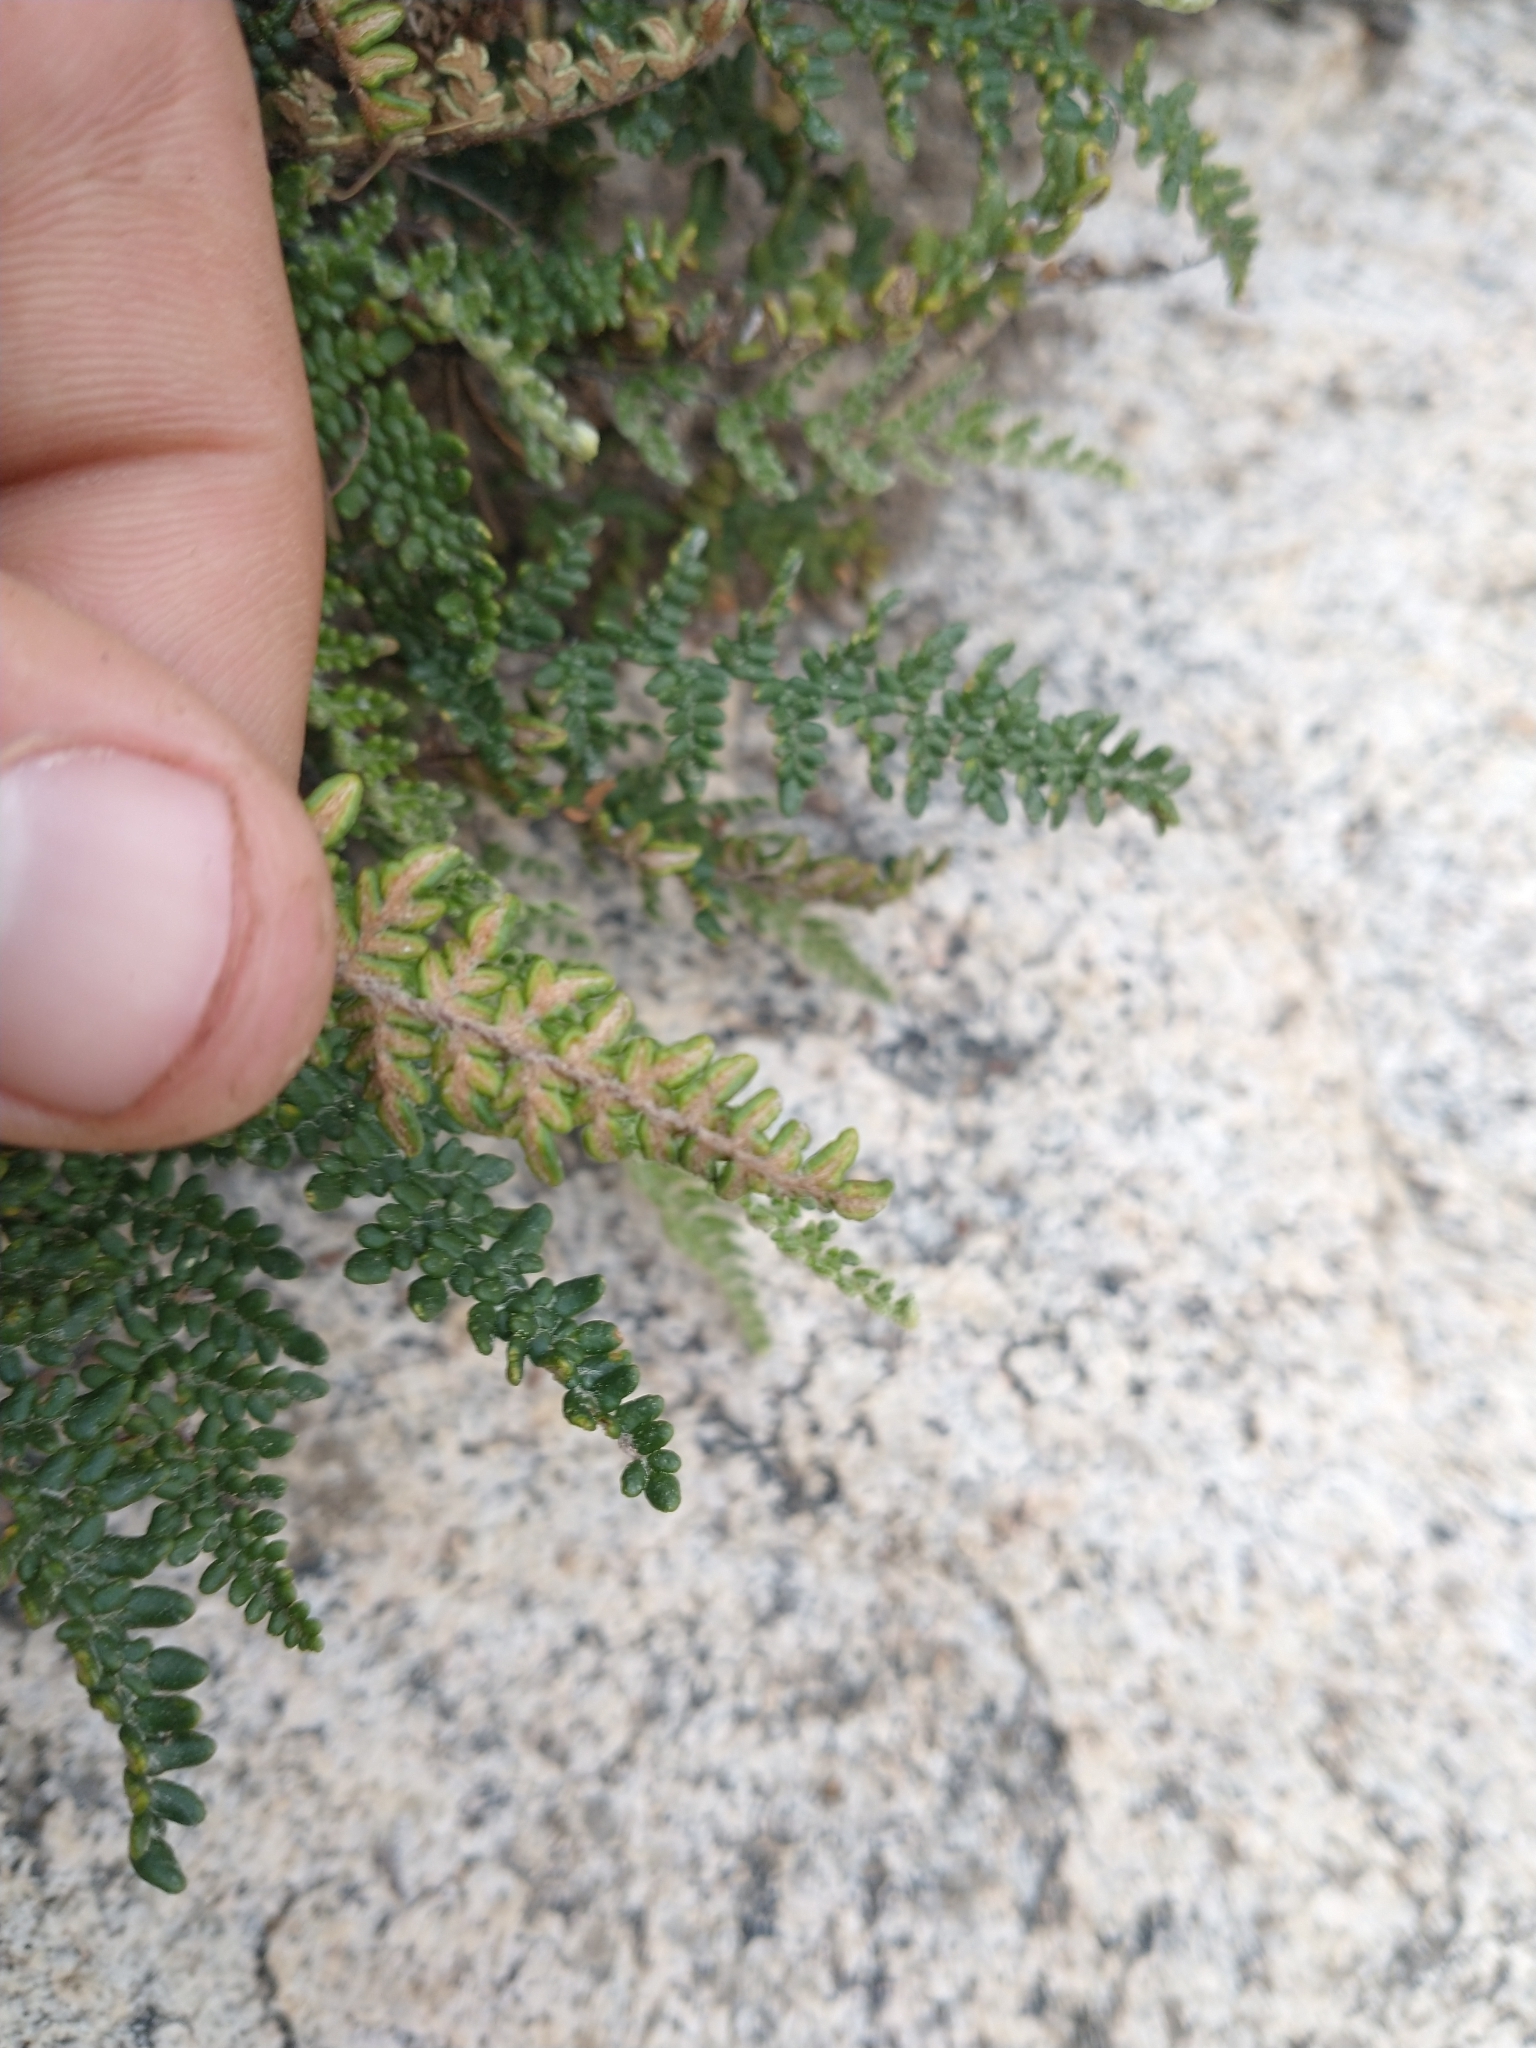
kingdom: Plantae
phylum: Tracheophyta
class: Polypodiopsida
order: Polypodiales
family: Pteridaceae
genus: Myriopteris
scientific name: Myriopteris gracillima
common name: Lace fern
